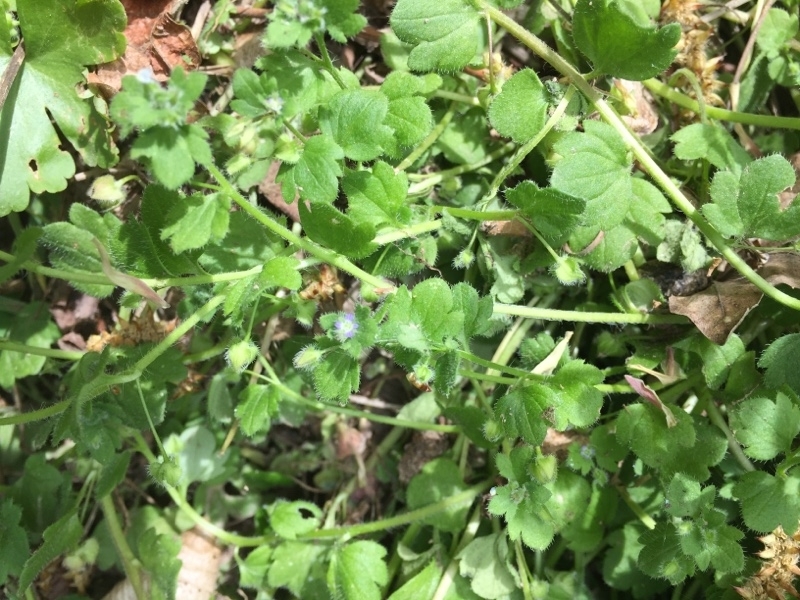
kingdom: Plantae
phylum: Tracheophyta
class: Magnoliopsida
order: Lamiales
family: Plantaginaceae
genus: Veronica
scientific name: Veronica hederifolia
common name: Ivy-leaved speedwell
